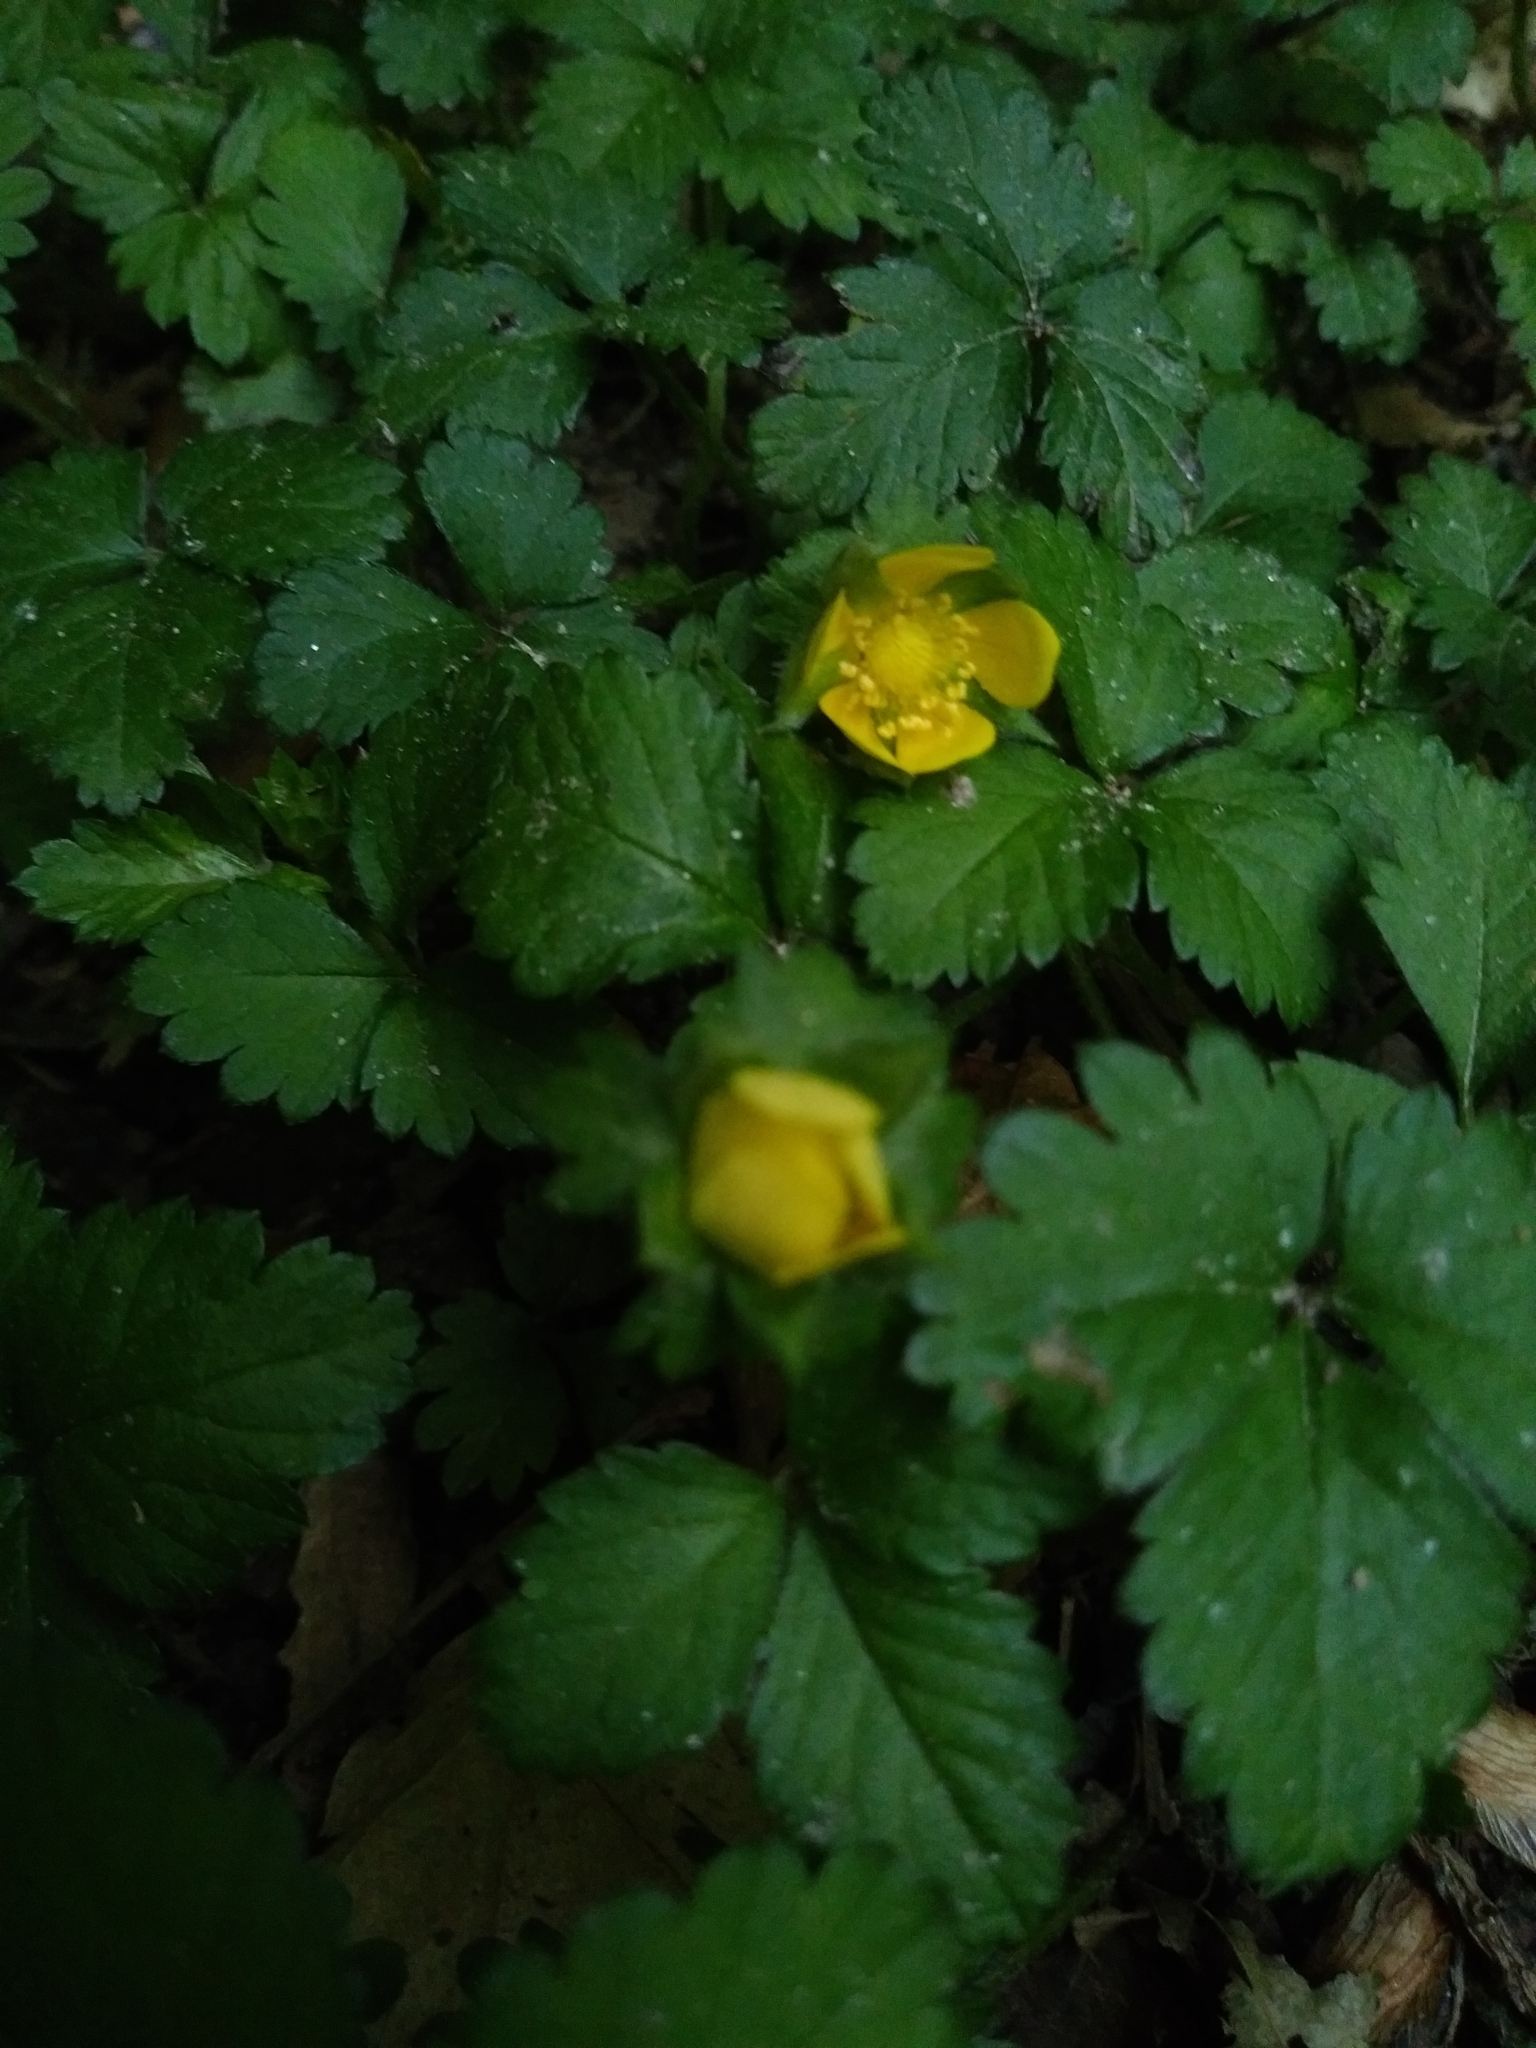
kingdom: Plantae
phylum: Tracheophyta
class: Magnoliopsida
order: Rosales
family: Rosaceae
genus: Potentilla
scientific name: Potentilla indica
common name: Yellow-flowered strawberry
